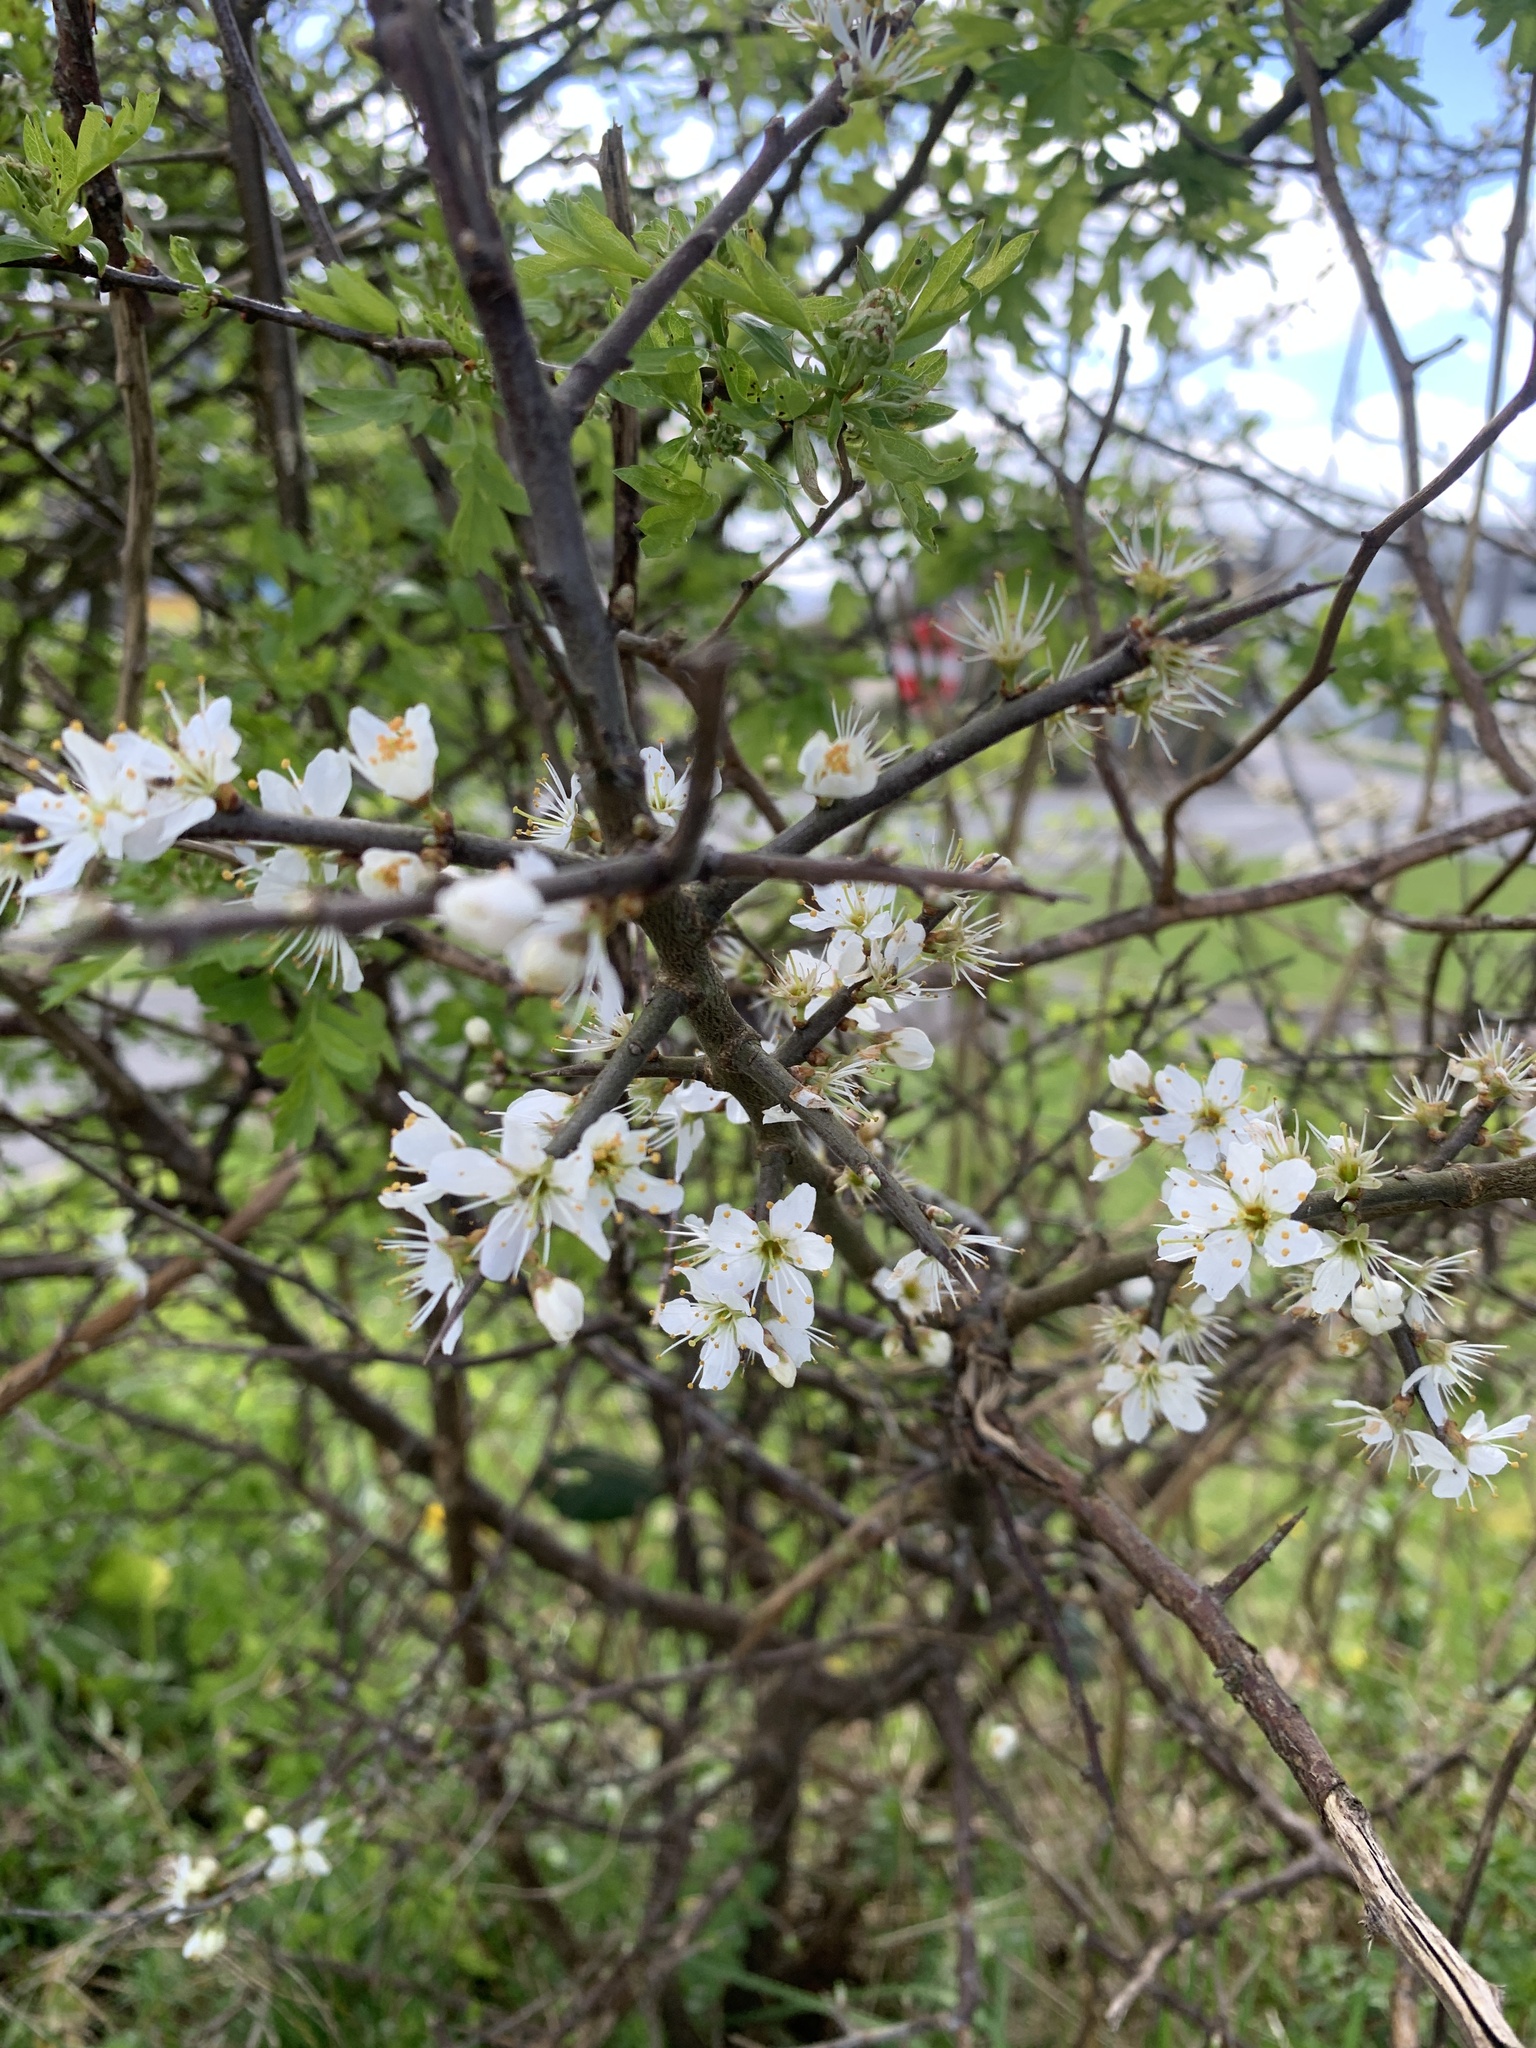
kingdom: Plantae
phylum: Tracheophyta
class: Magnoliopsida
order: Rosales
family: Rosaceae
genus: Prunus
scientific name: Prunus spinosa
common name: Blackthorn
